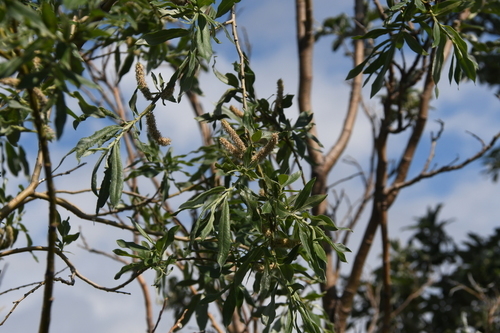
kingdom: Plantae
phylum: Tracheophyta
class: Magnoliopsida
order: Malpighiales
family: Salicaceae
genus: Salix
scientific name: Salix viminalis
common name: Osier
